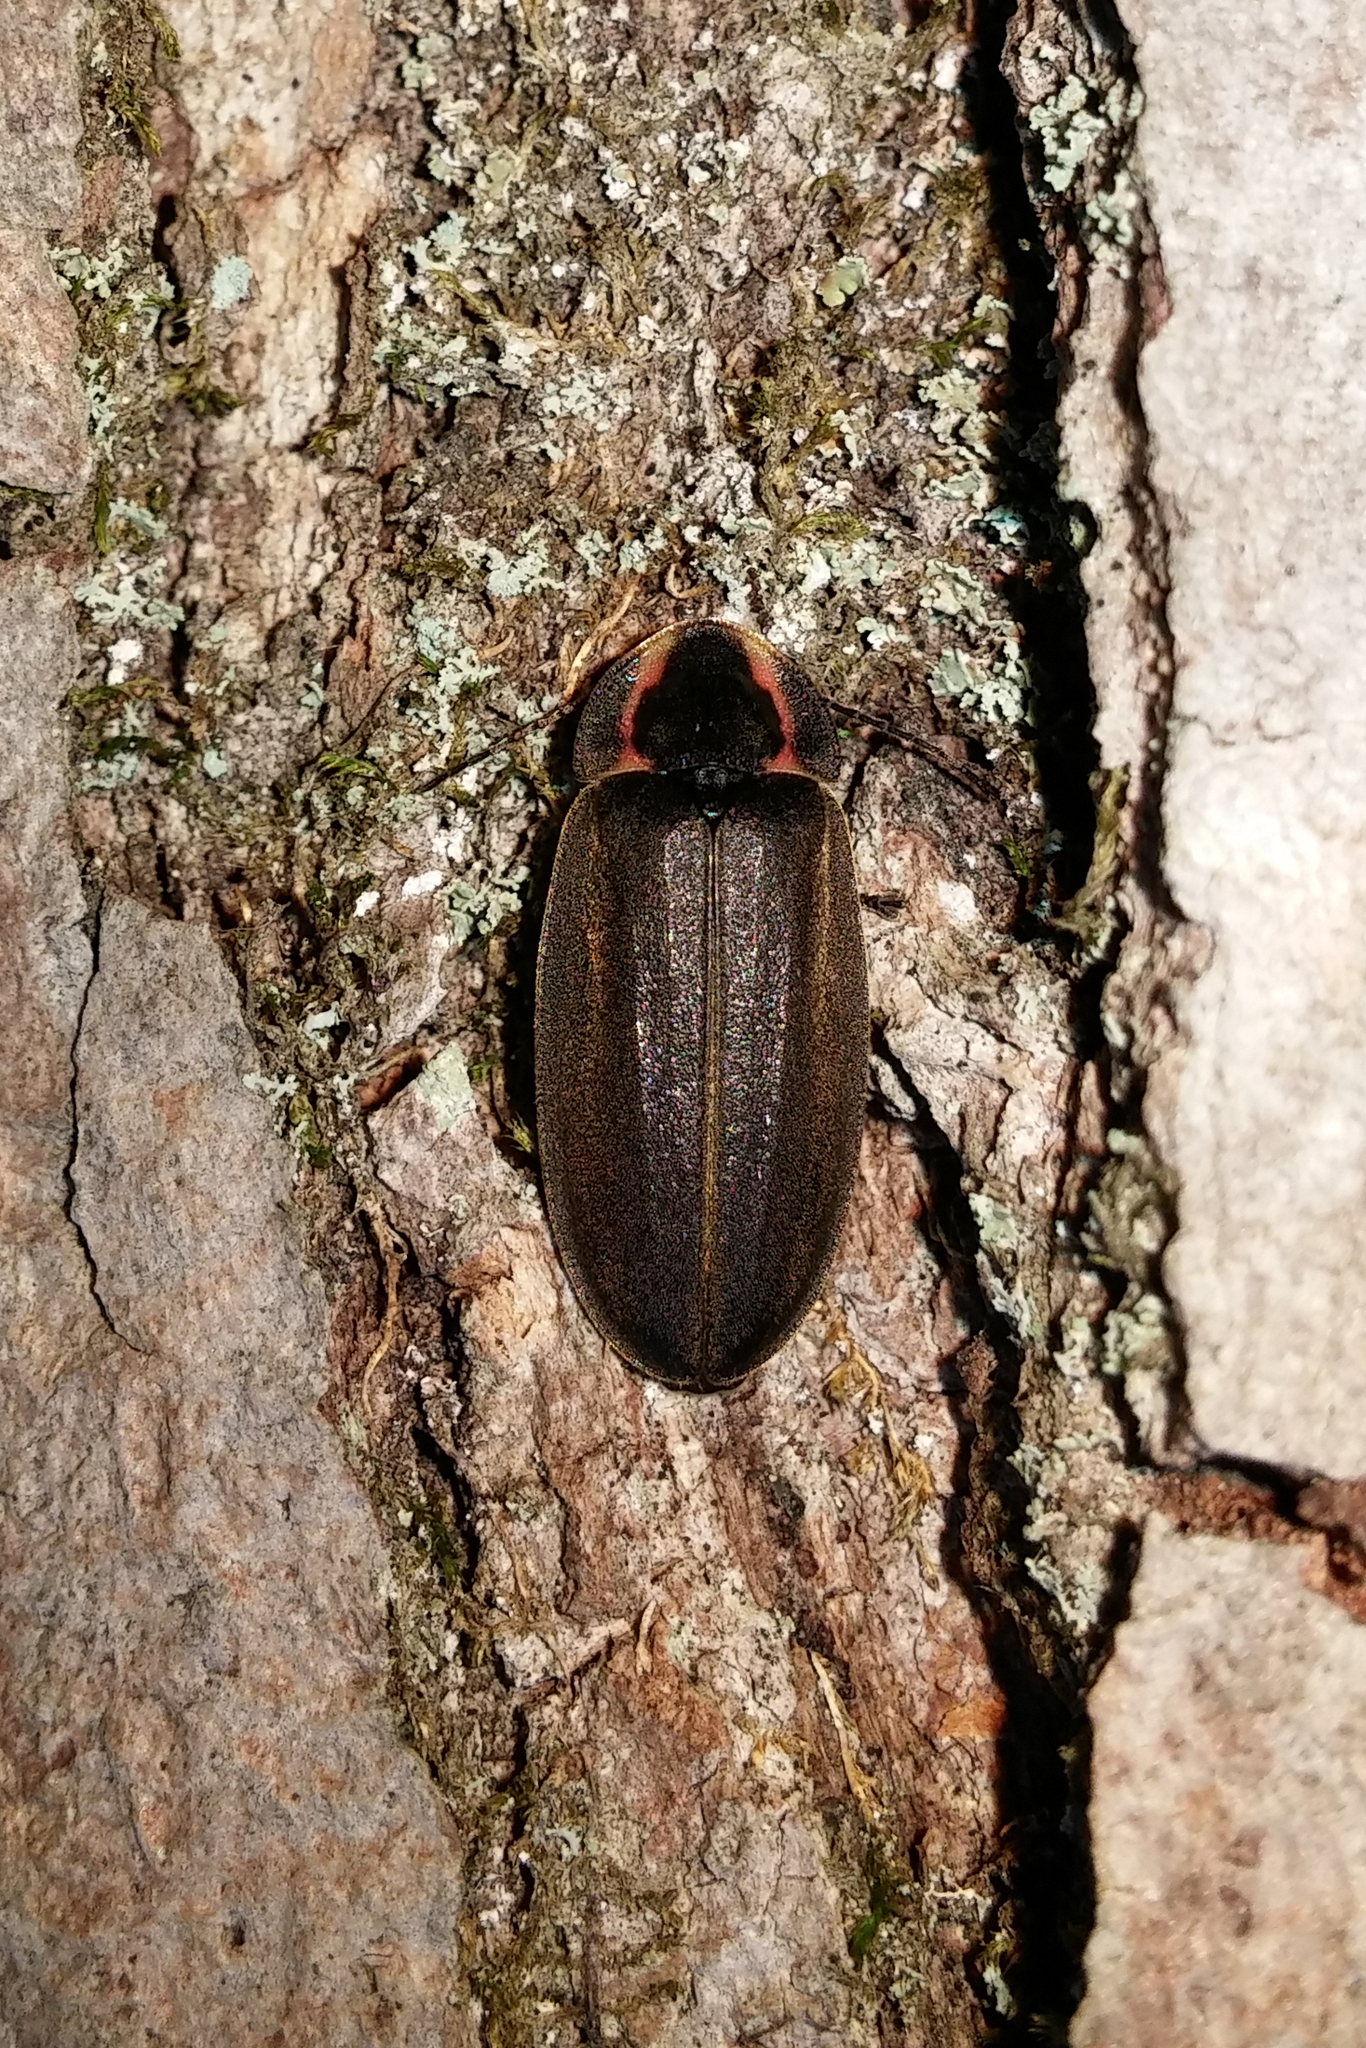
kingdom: Animalia
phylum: Arthropoda
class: Insecta
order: Coleoptera
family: Lampyridae
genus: Photinus
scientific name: Photinus corrusca
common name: Winter firefly
